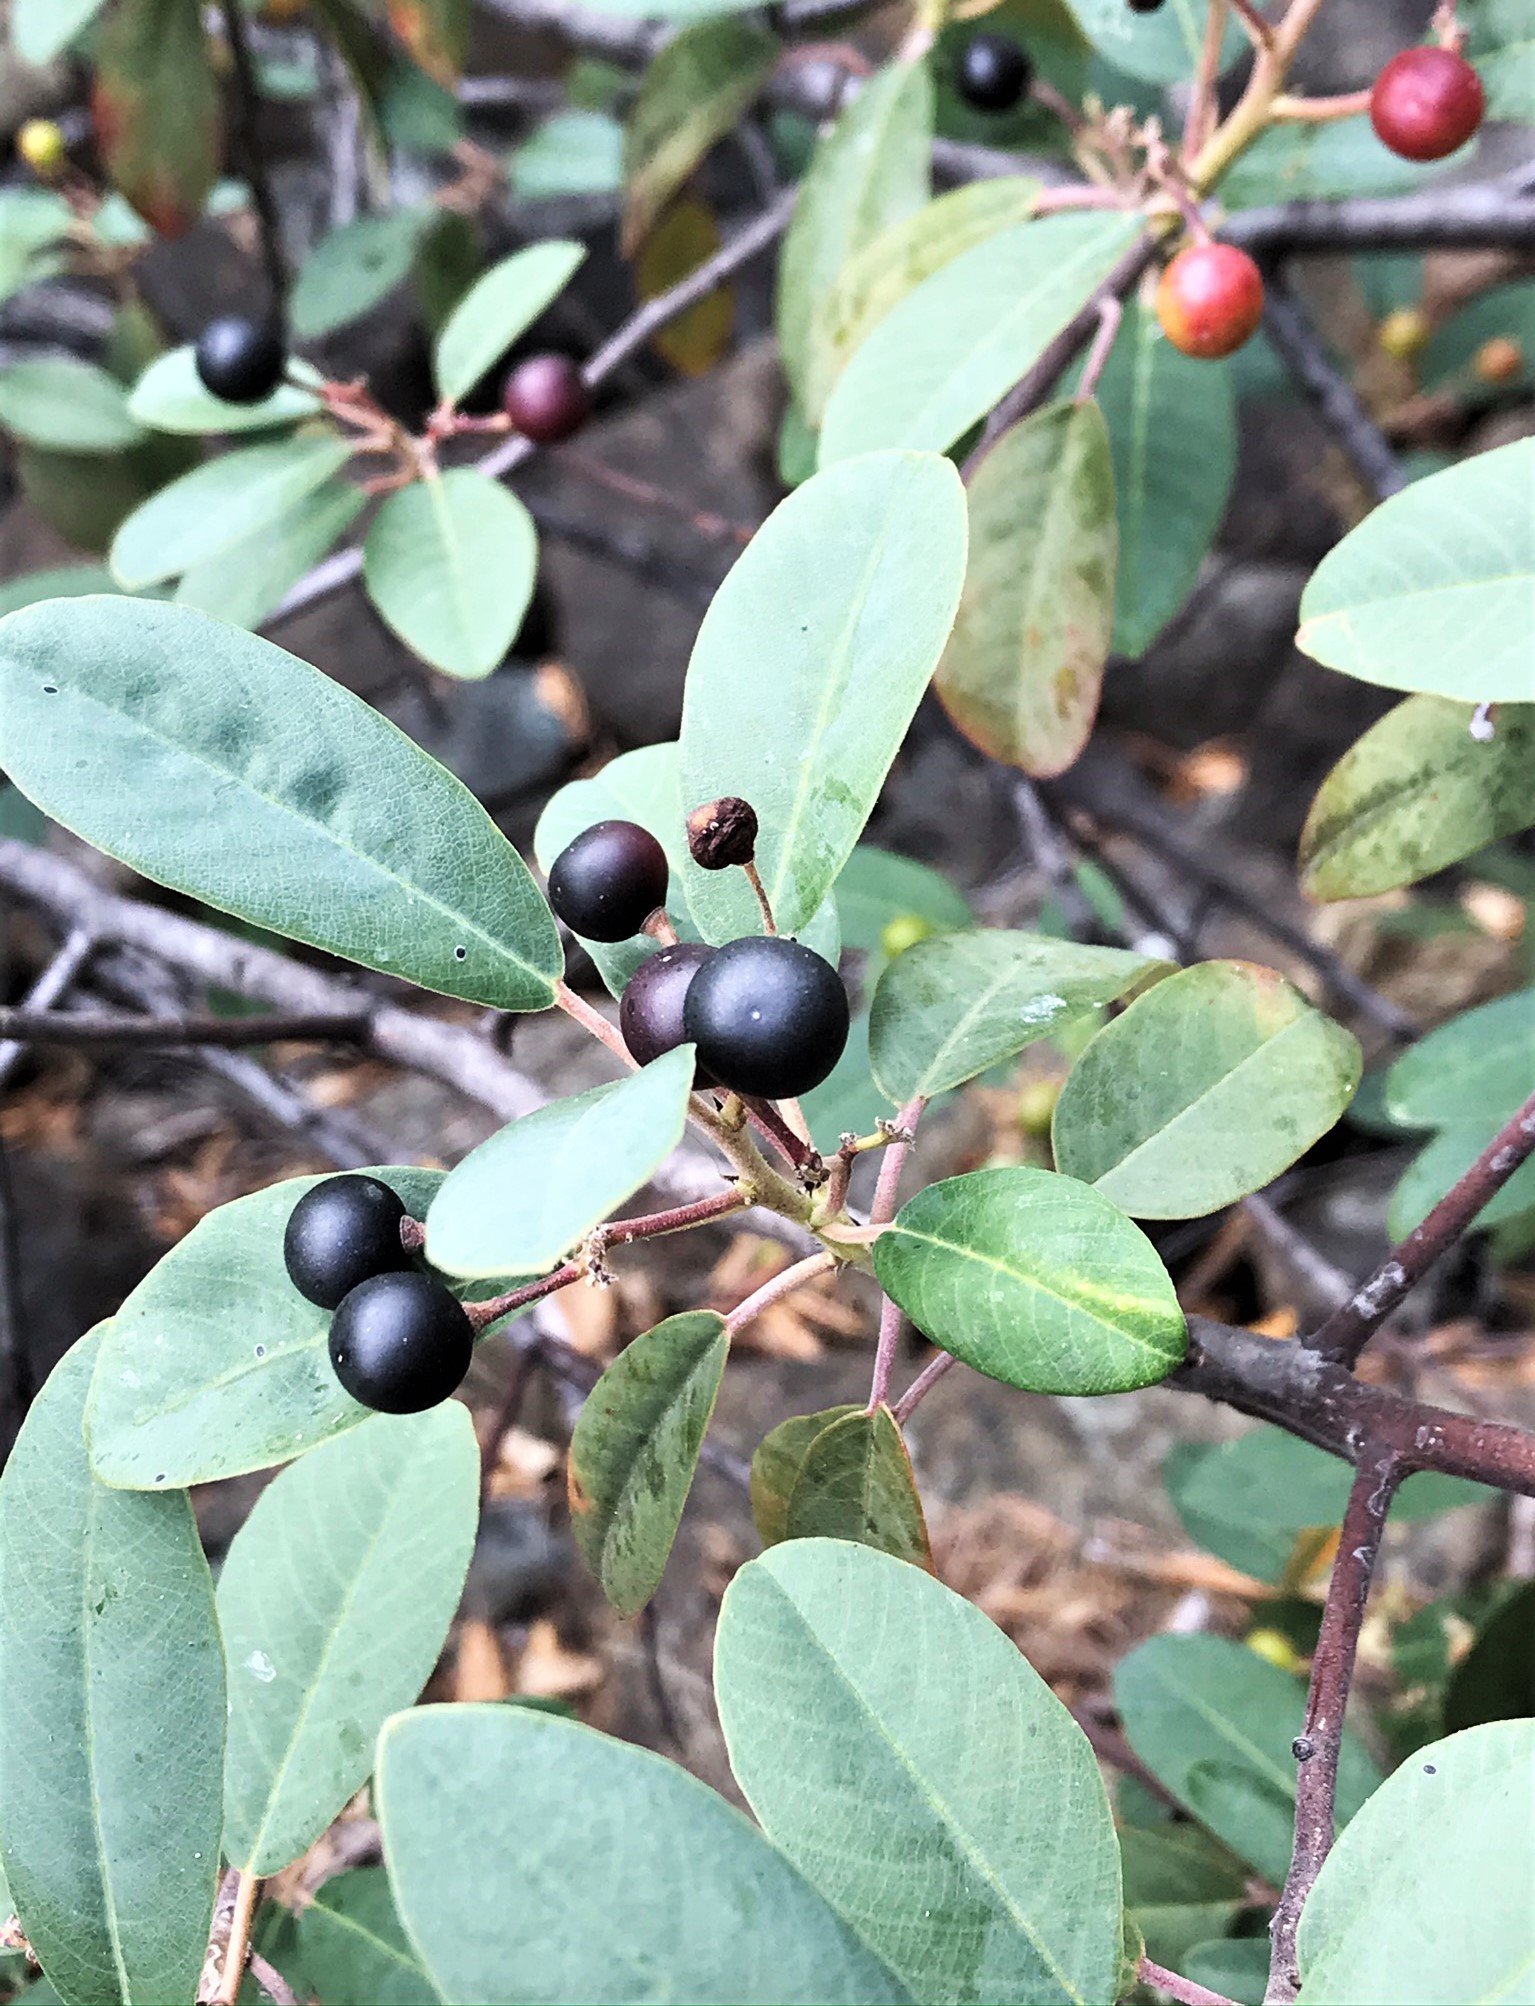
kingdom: Plantae
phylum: Tracheophyta
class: Magnoliopsida
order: Rosales
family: Rhamnaceae
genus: Frangula
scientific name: Frangula californica
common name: California buckthorn
